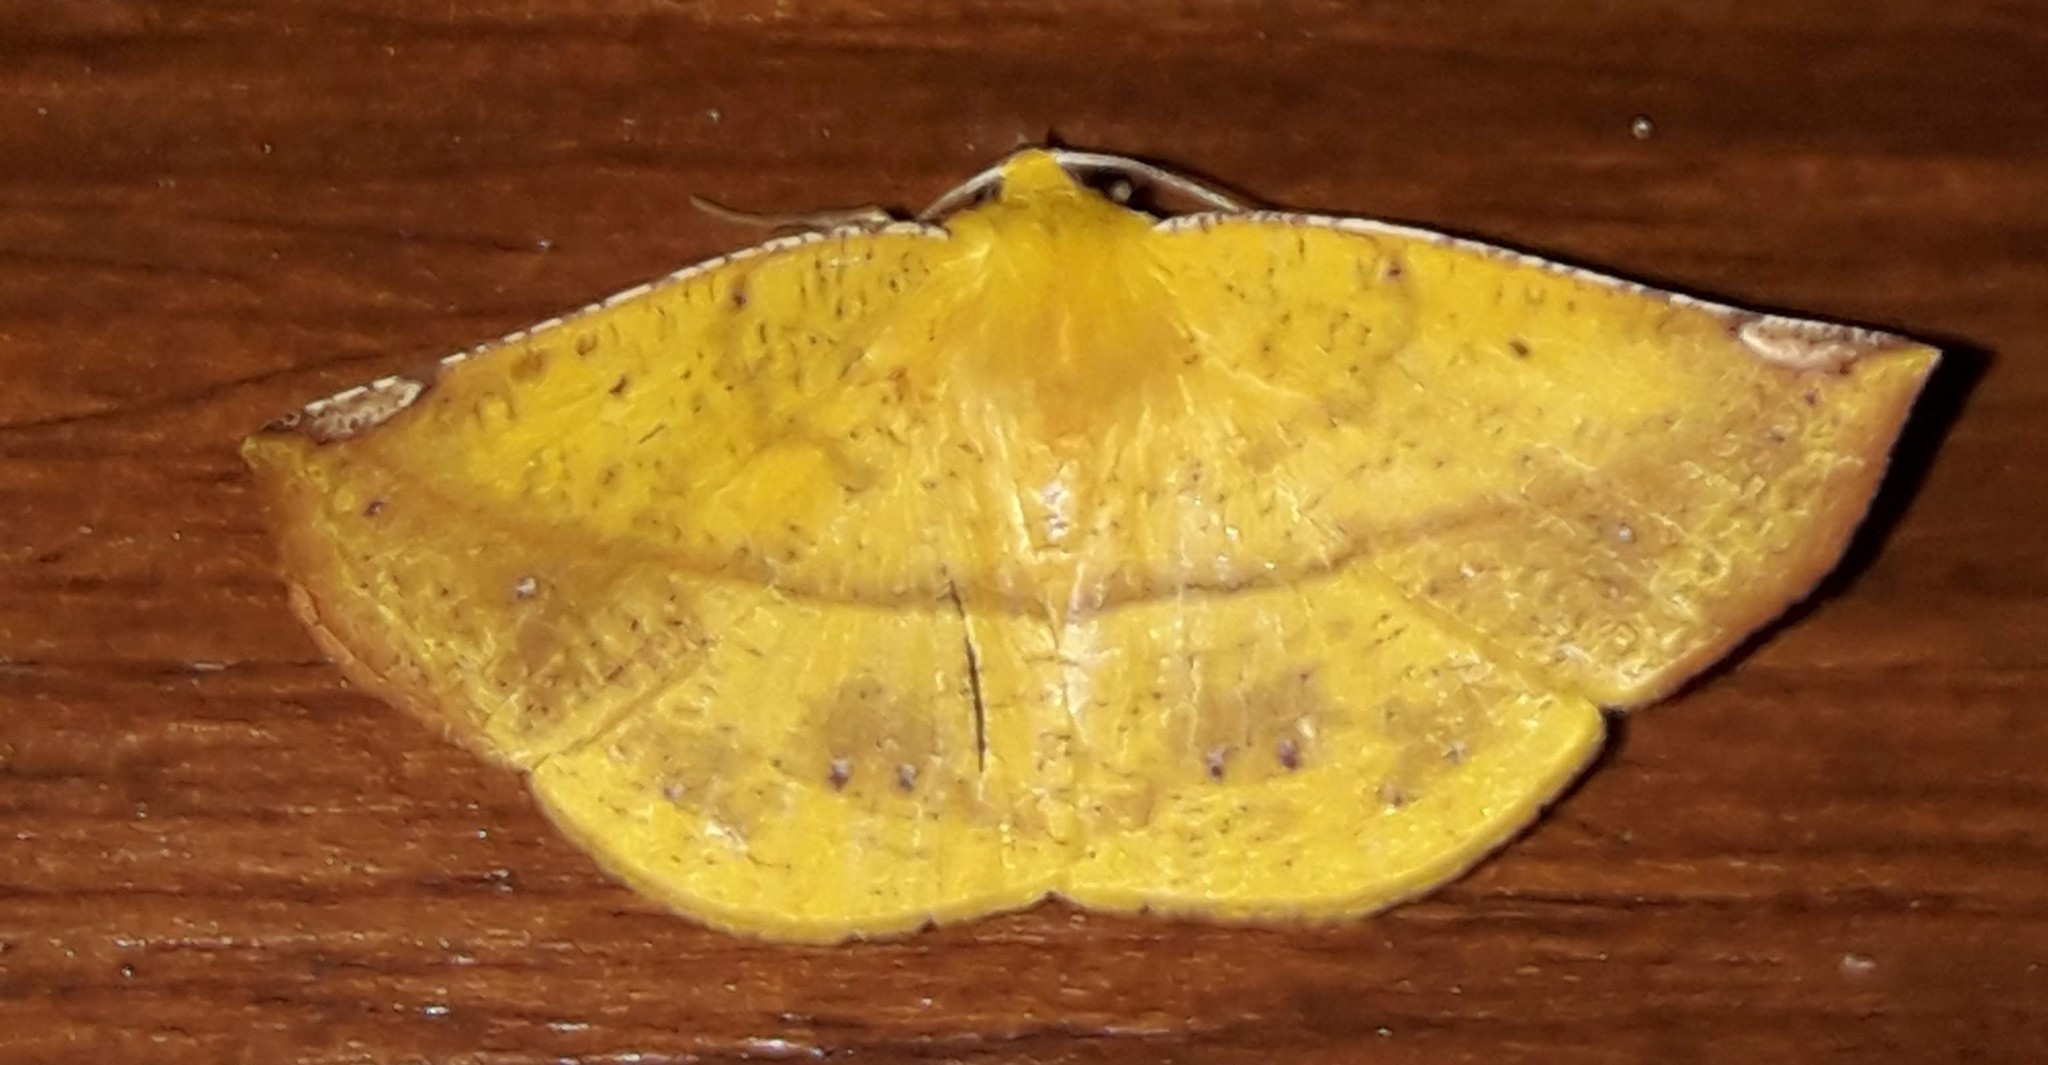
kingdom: Animalia
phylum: Arthropoda
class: Insecta
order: Lepidoptera
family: Geometridae
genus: Cratoptera
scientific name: Cratoptera zarumata
